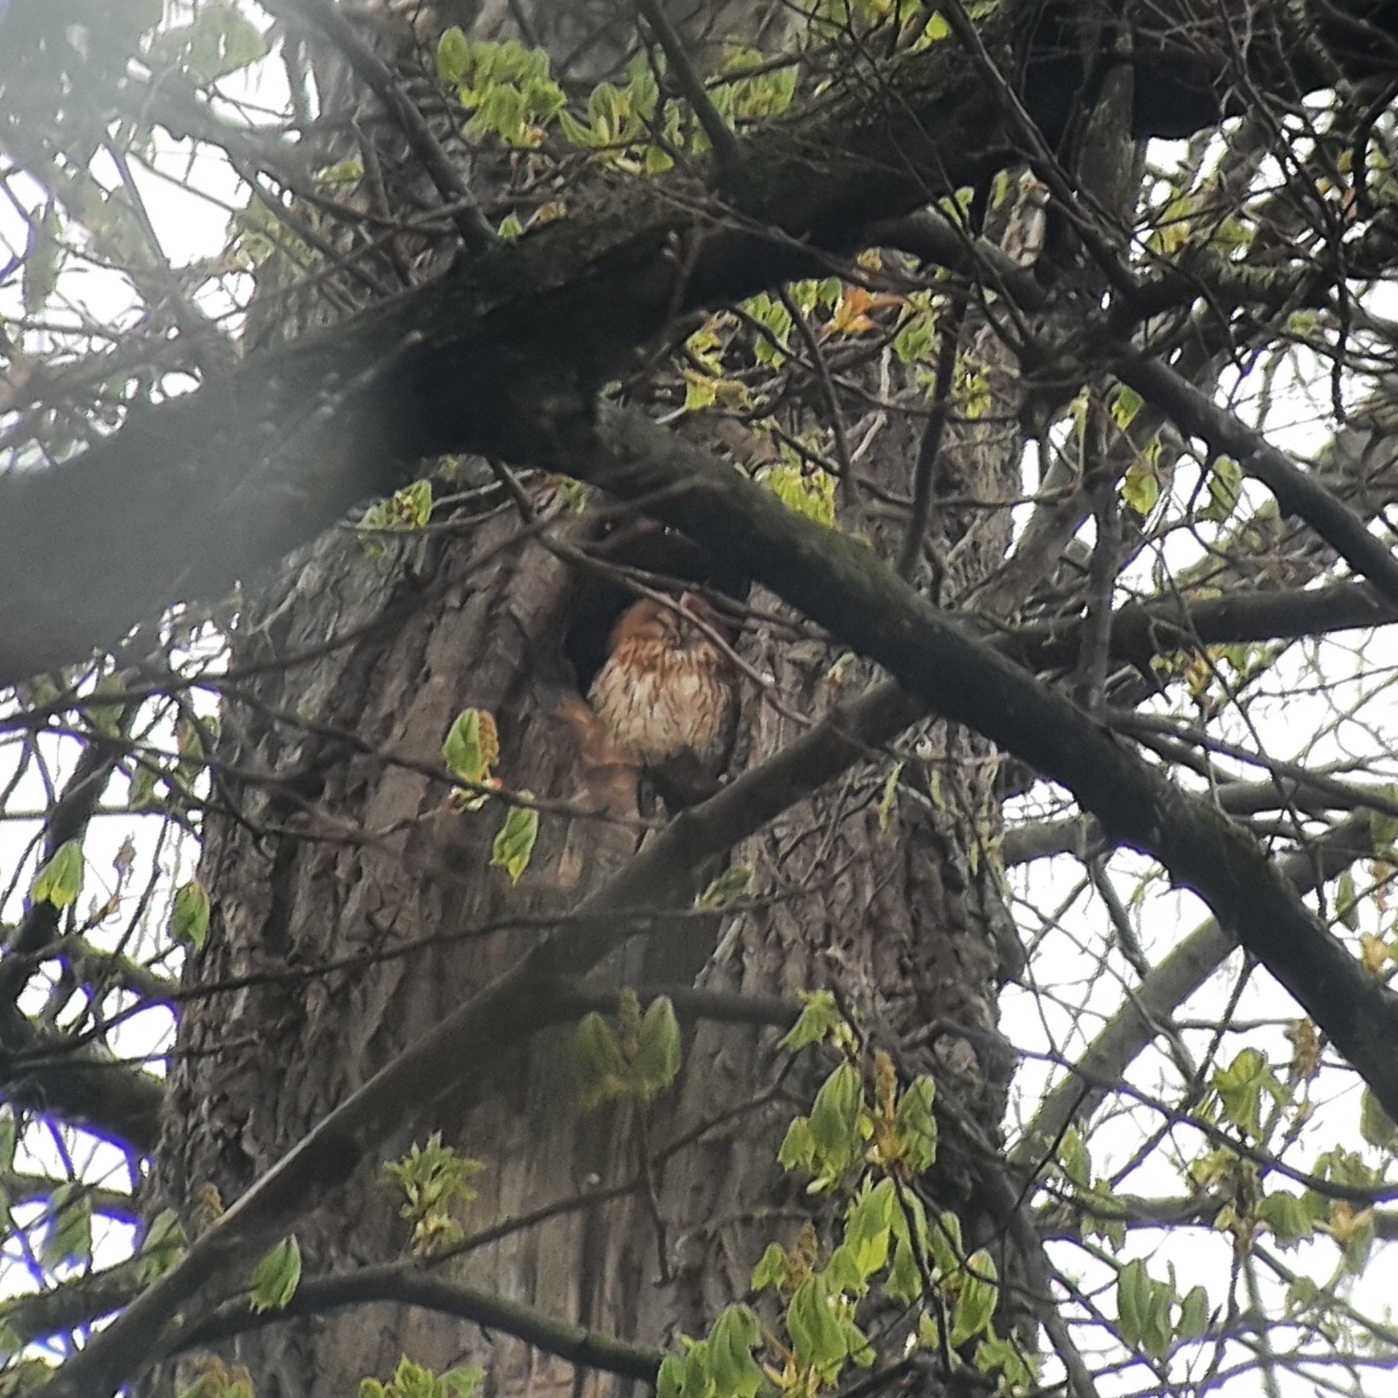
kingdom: Animalia
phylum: Chordata
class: Aves
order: Strigiformes
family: Strigidae
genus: Strix
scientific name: Strix aluco
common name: Tawny owl
